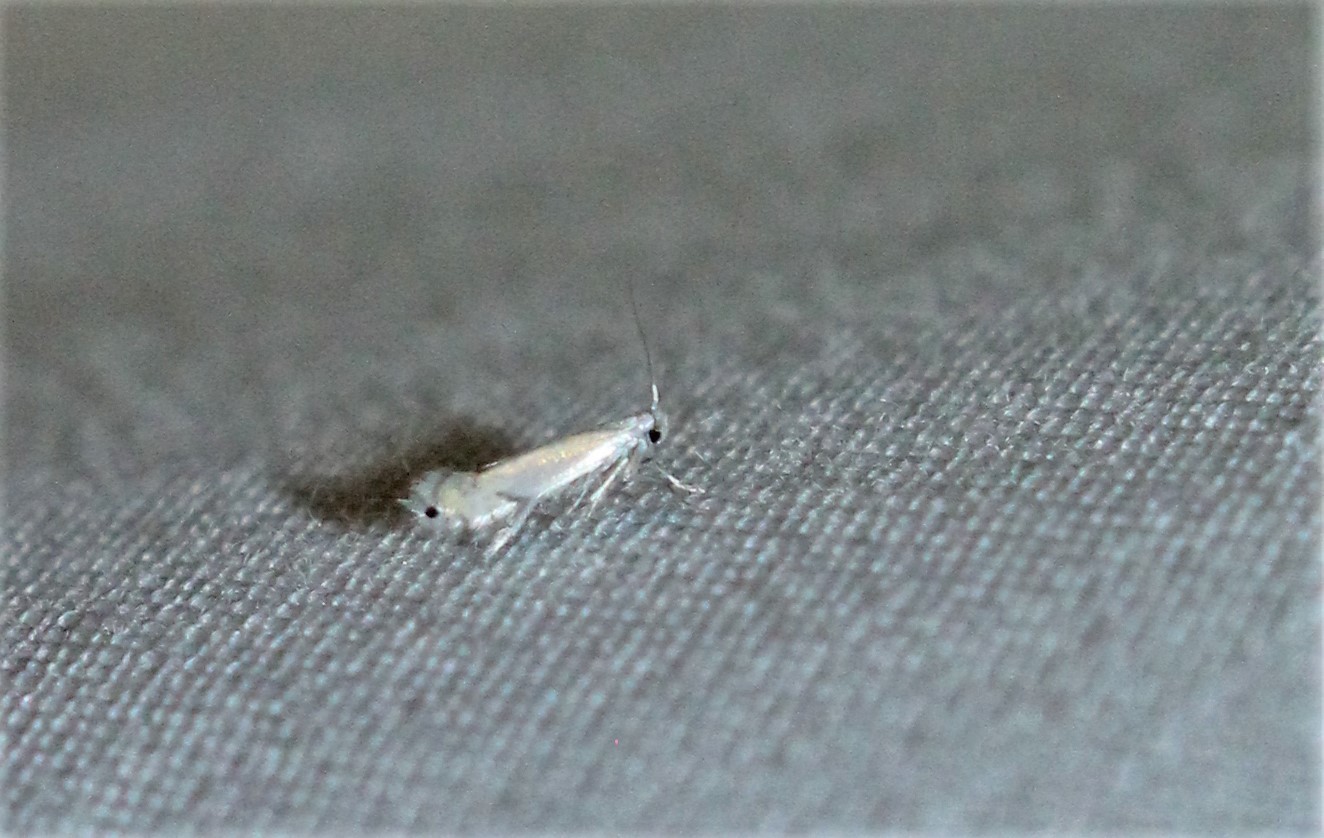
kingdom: Animalia
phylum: Arthropoda
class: Insecta
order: Lepidoptera
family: Gracillariidae
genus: Phyllocnistis
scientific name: Phyllocnistis populiella
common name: Aspen serpentine leafminer moth
